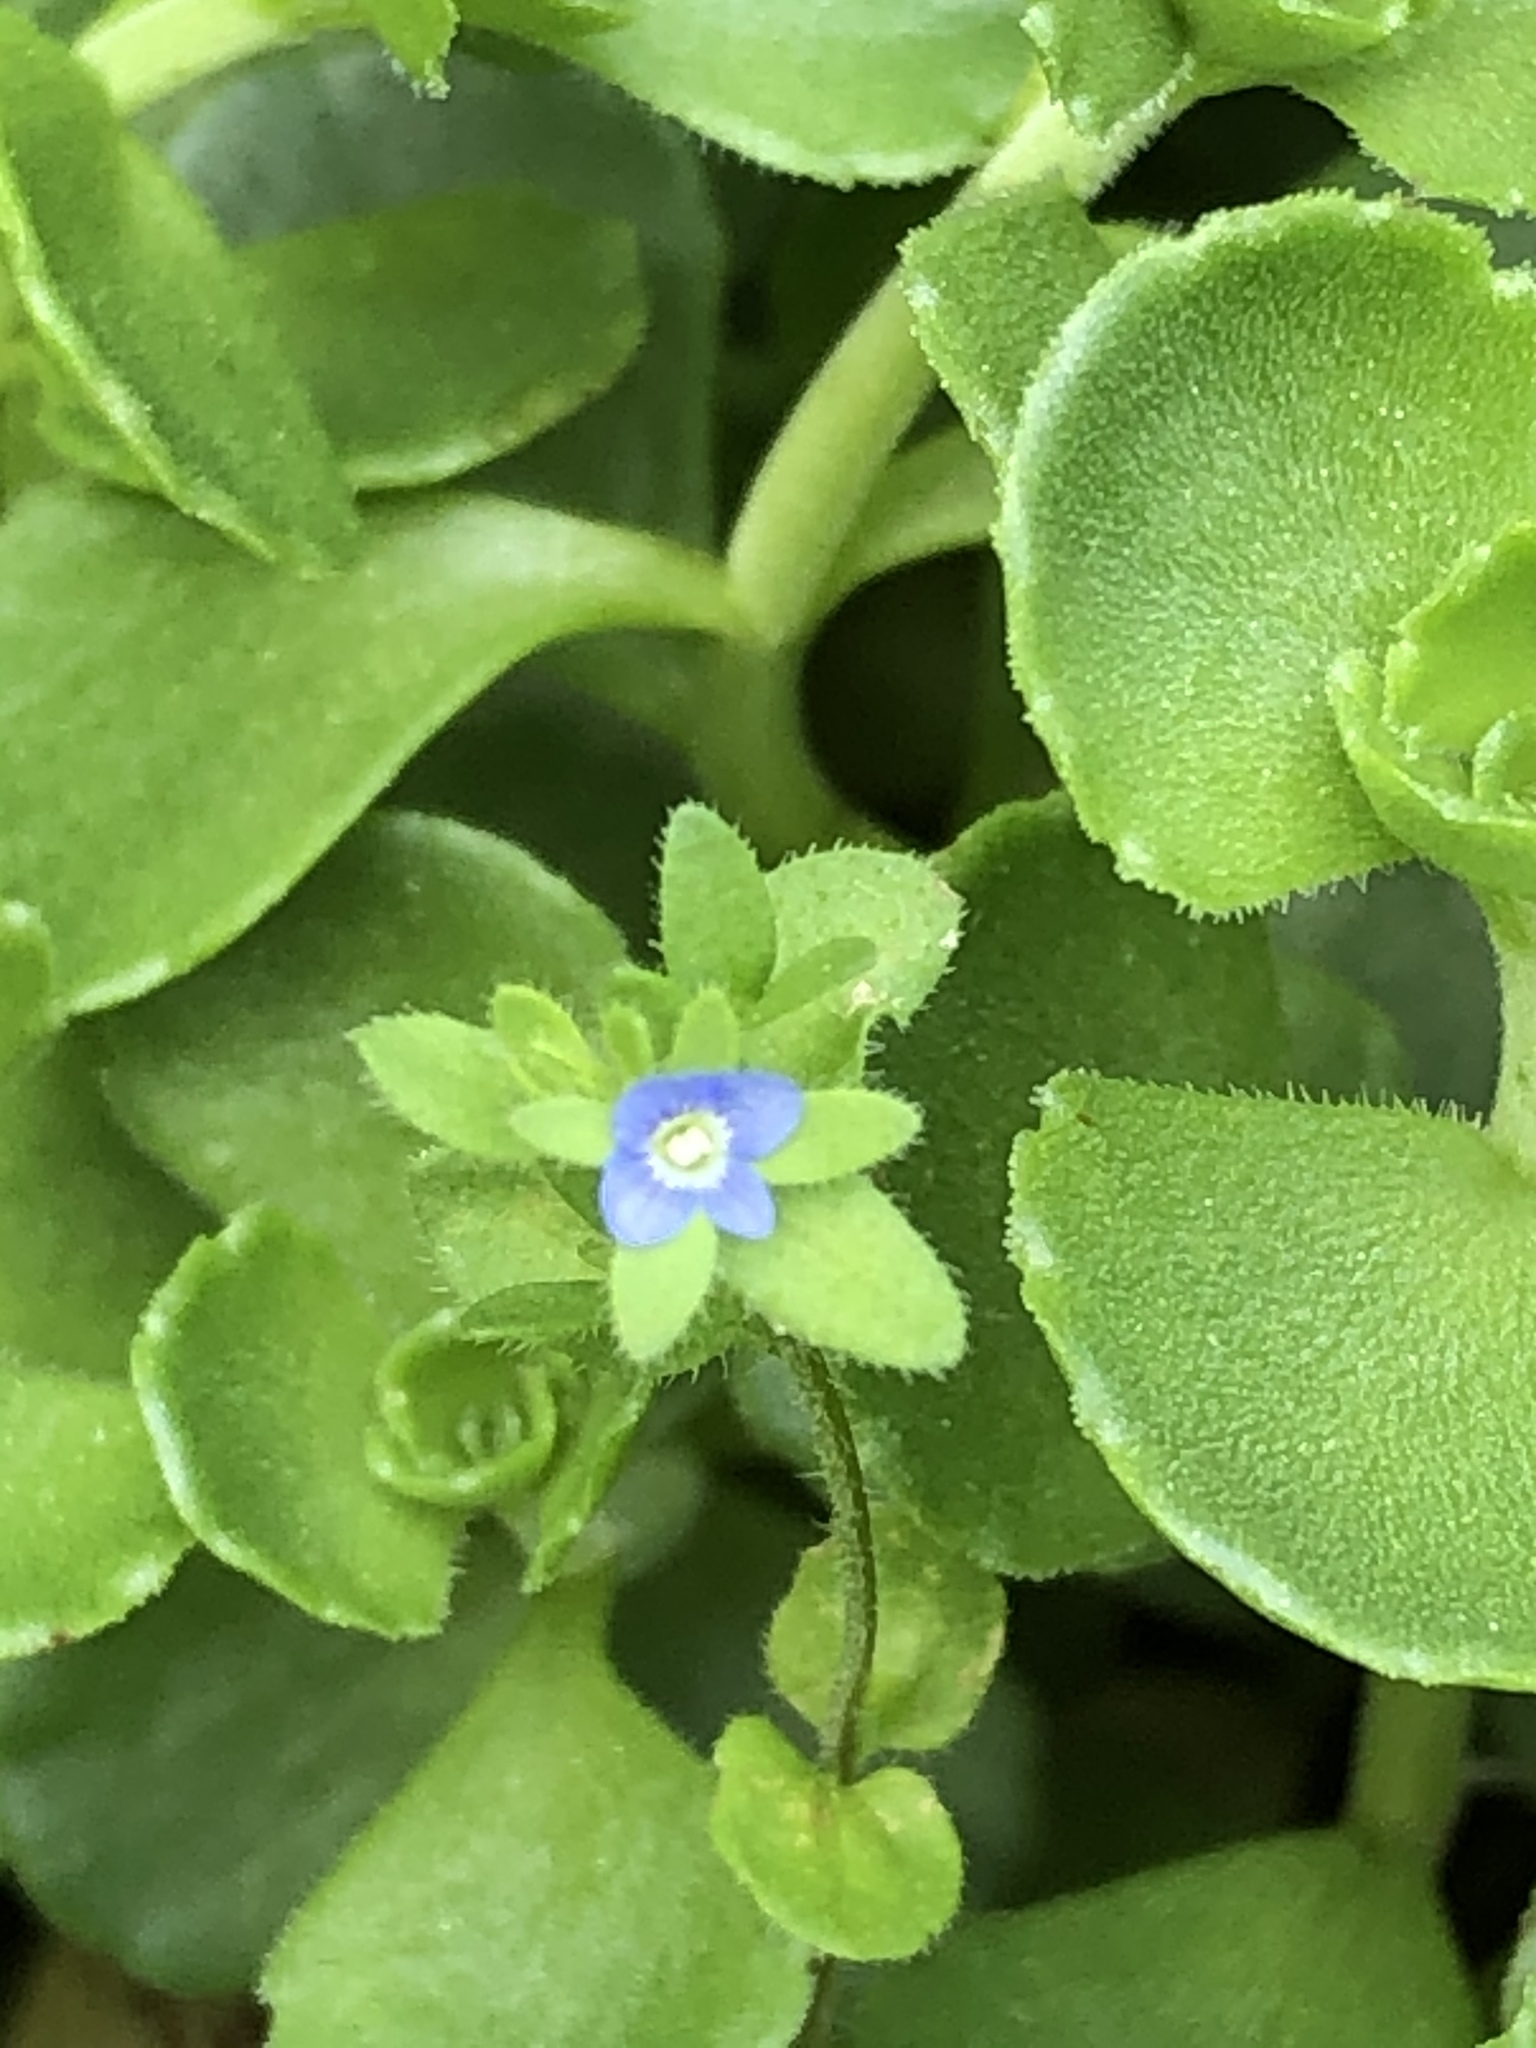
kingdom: Plantae
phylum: Tracheophyta
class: Magnoliopsida
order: Lamiales
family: Plantaginaceae
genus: Veronica
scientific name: Veronica arvensis
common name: Corn speedwell
